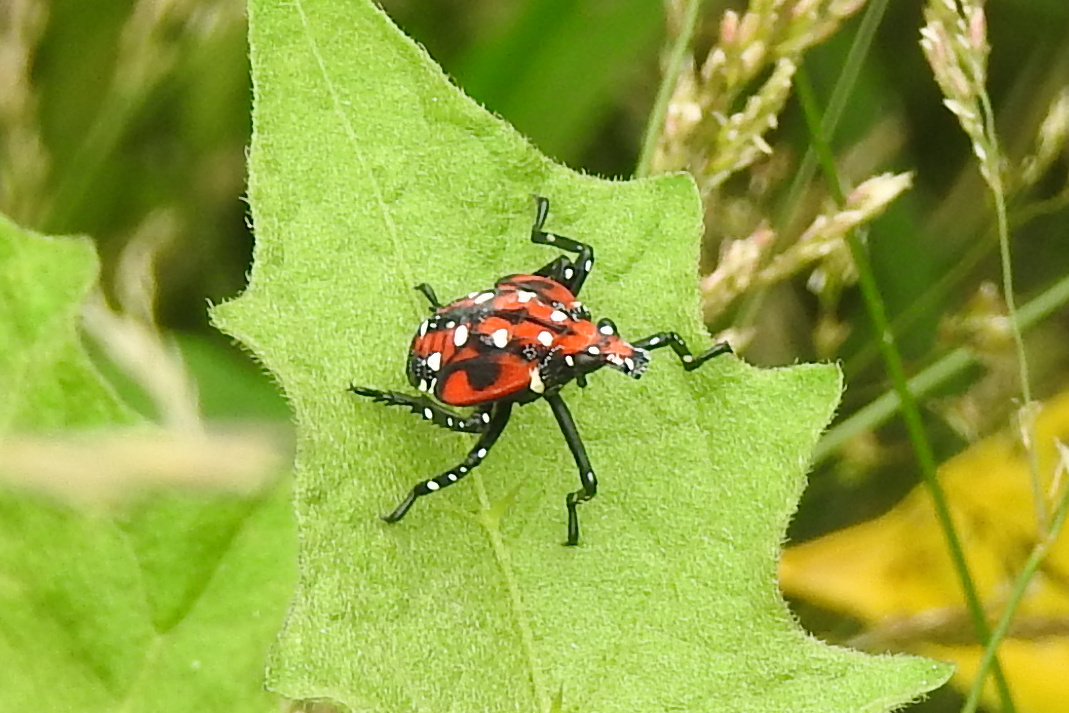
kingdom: Animalia
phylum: Arthropoda
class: Insecta
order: Hemiptera
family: Fulgoridae
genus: Lycorma
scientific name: Lycorma delicatula
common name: Spotted lanternfly
